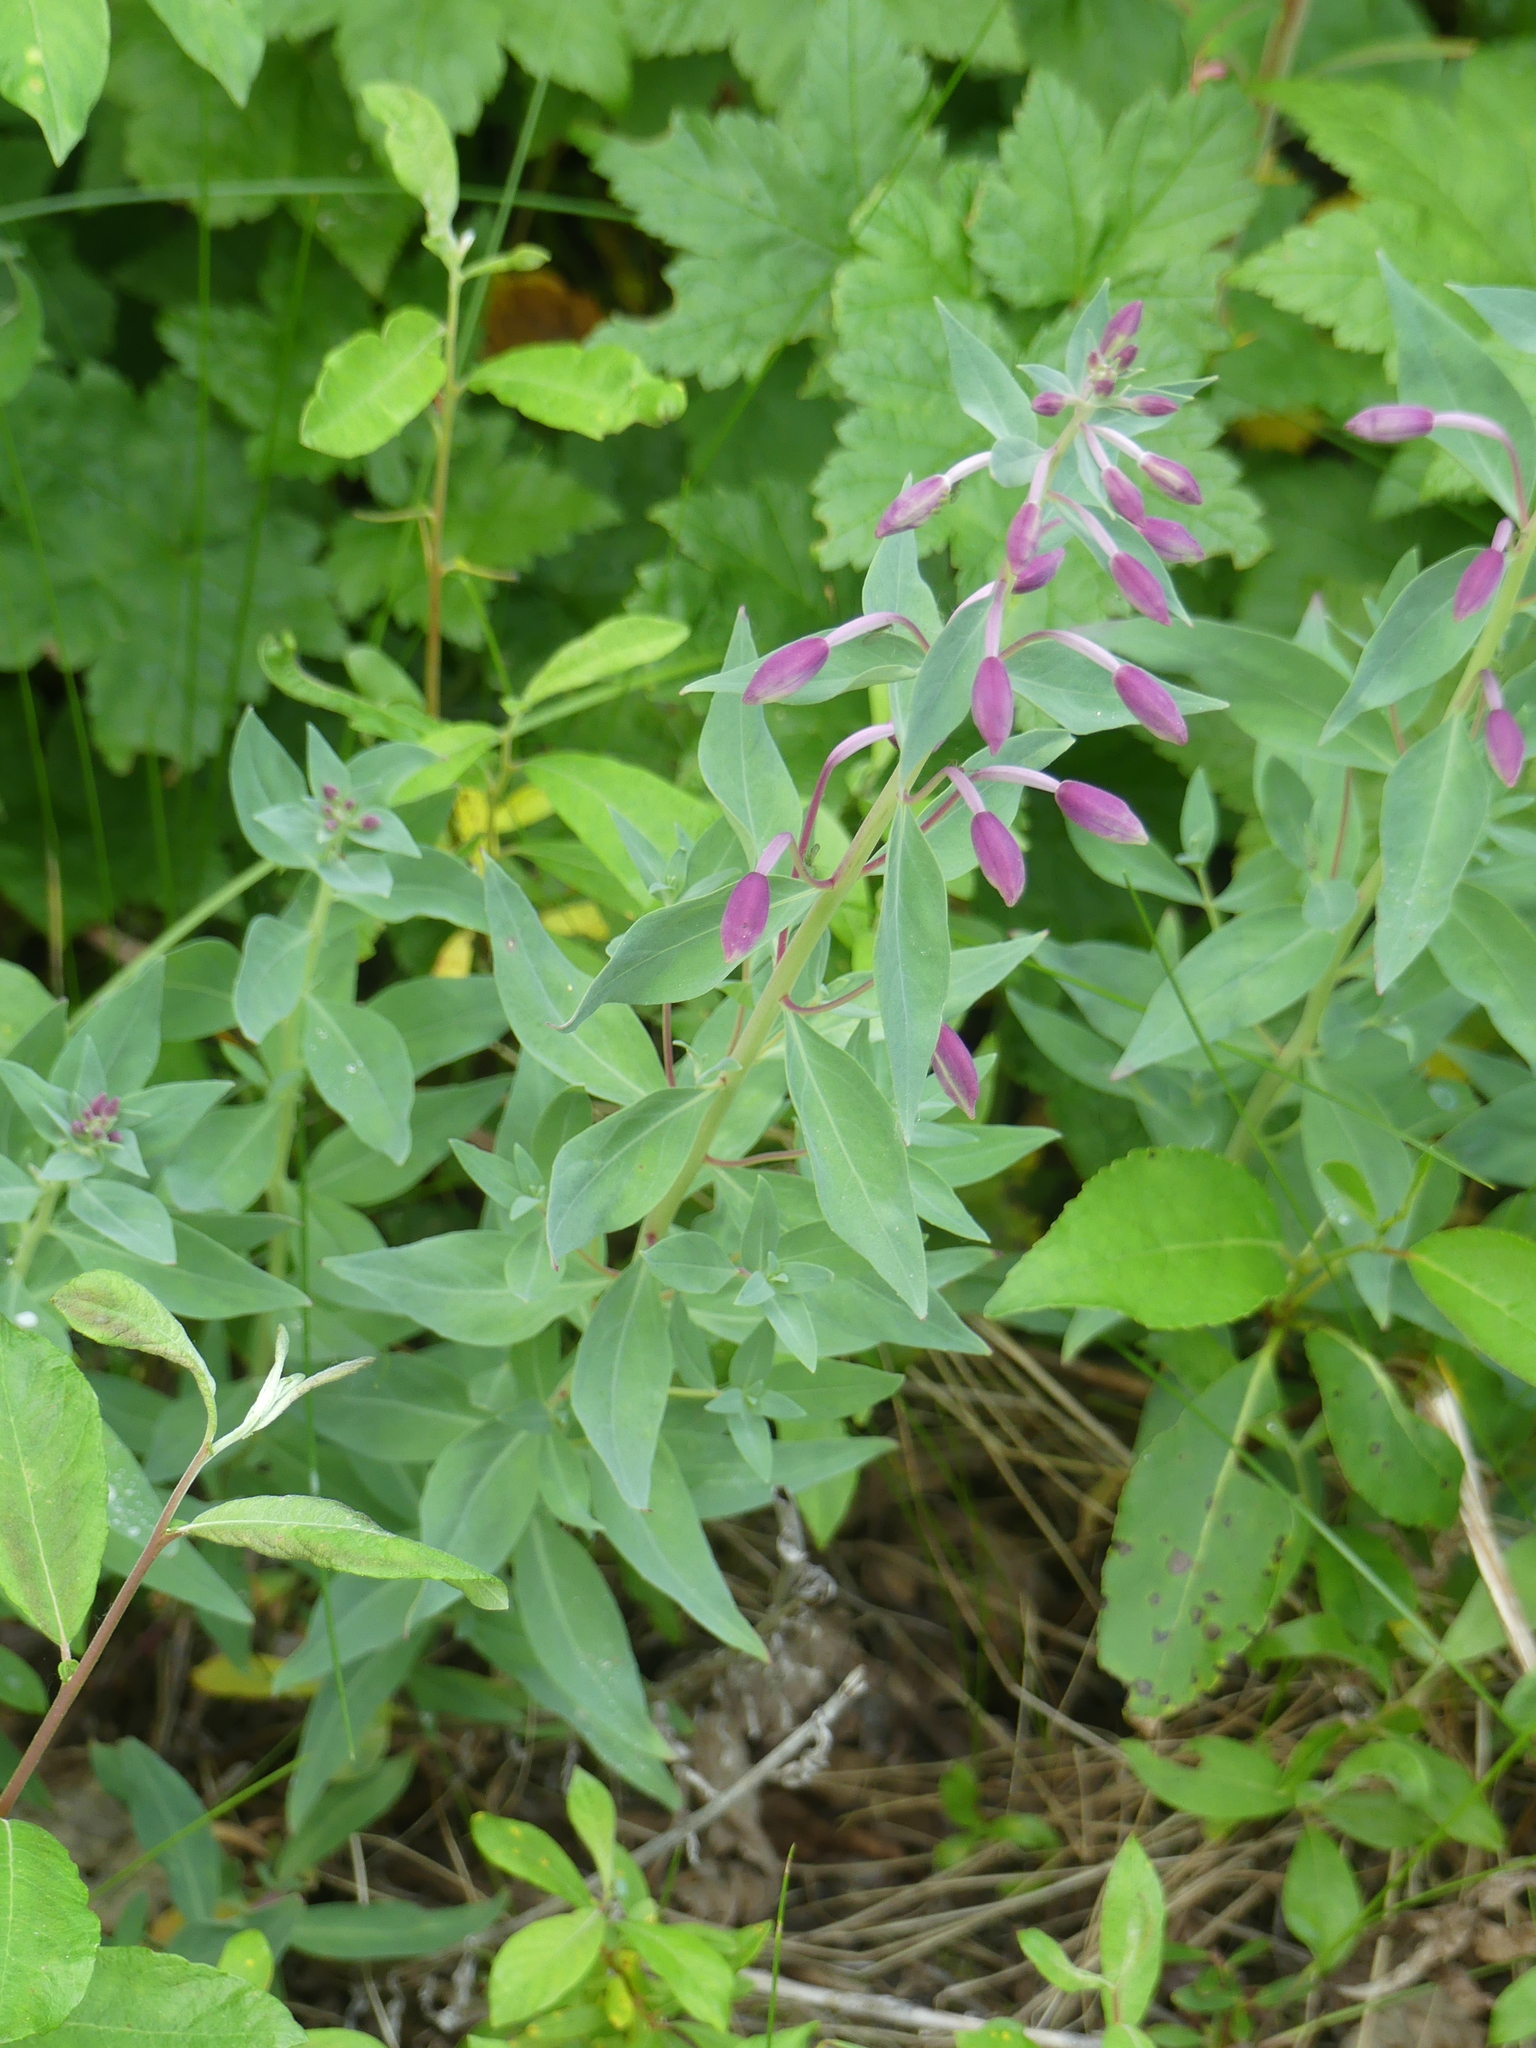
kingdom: Plantae
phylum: Tracheophyta
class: Magnoliopsida
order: Myrtales
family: Onagraceae
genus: Chamaenerion
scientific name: Chamaenerion latifolium
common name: Dwarf fireweed
